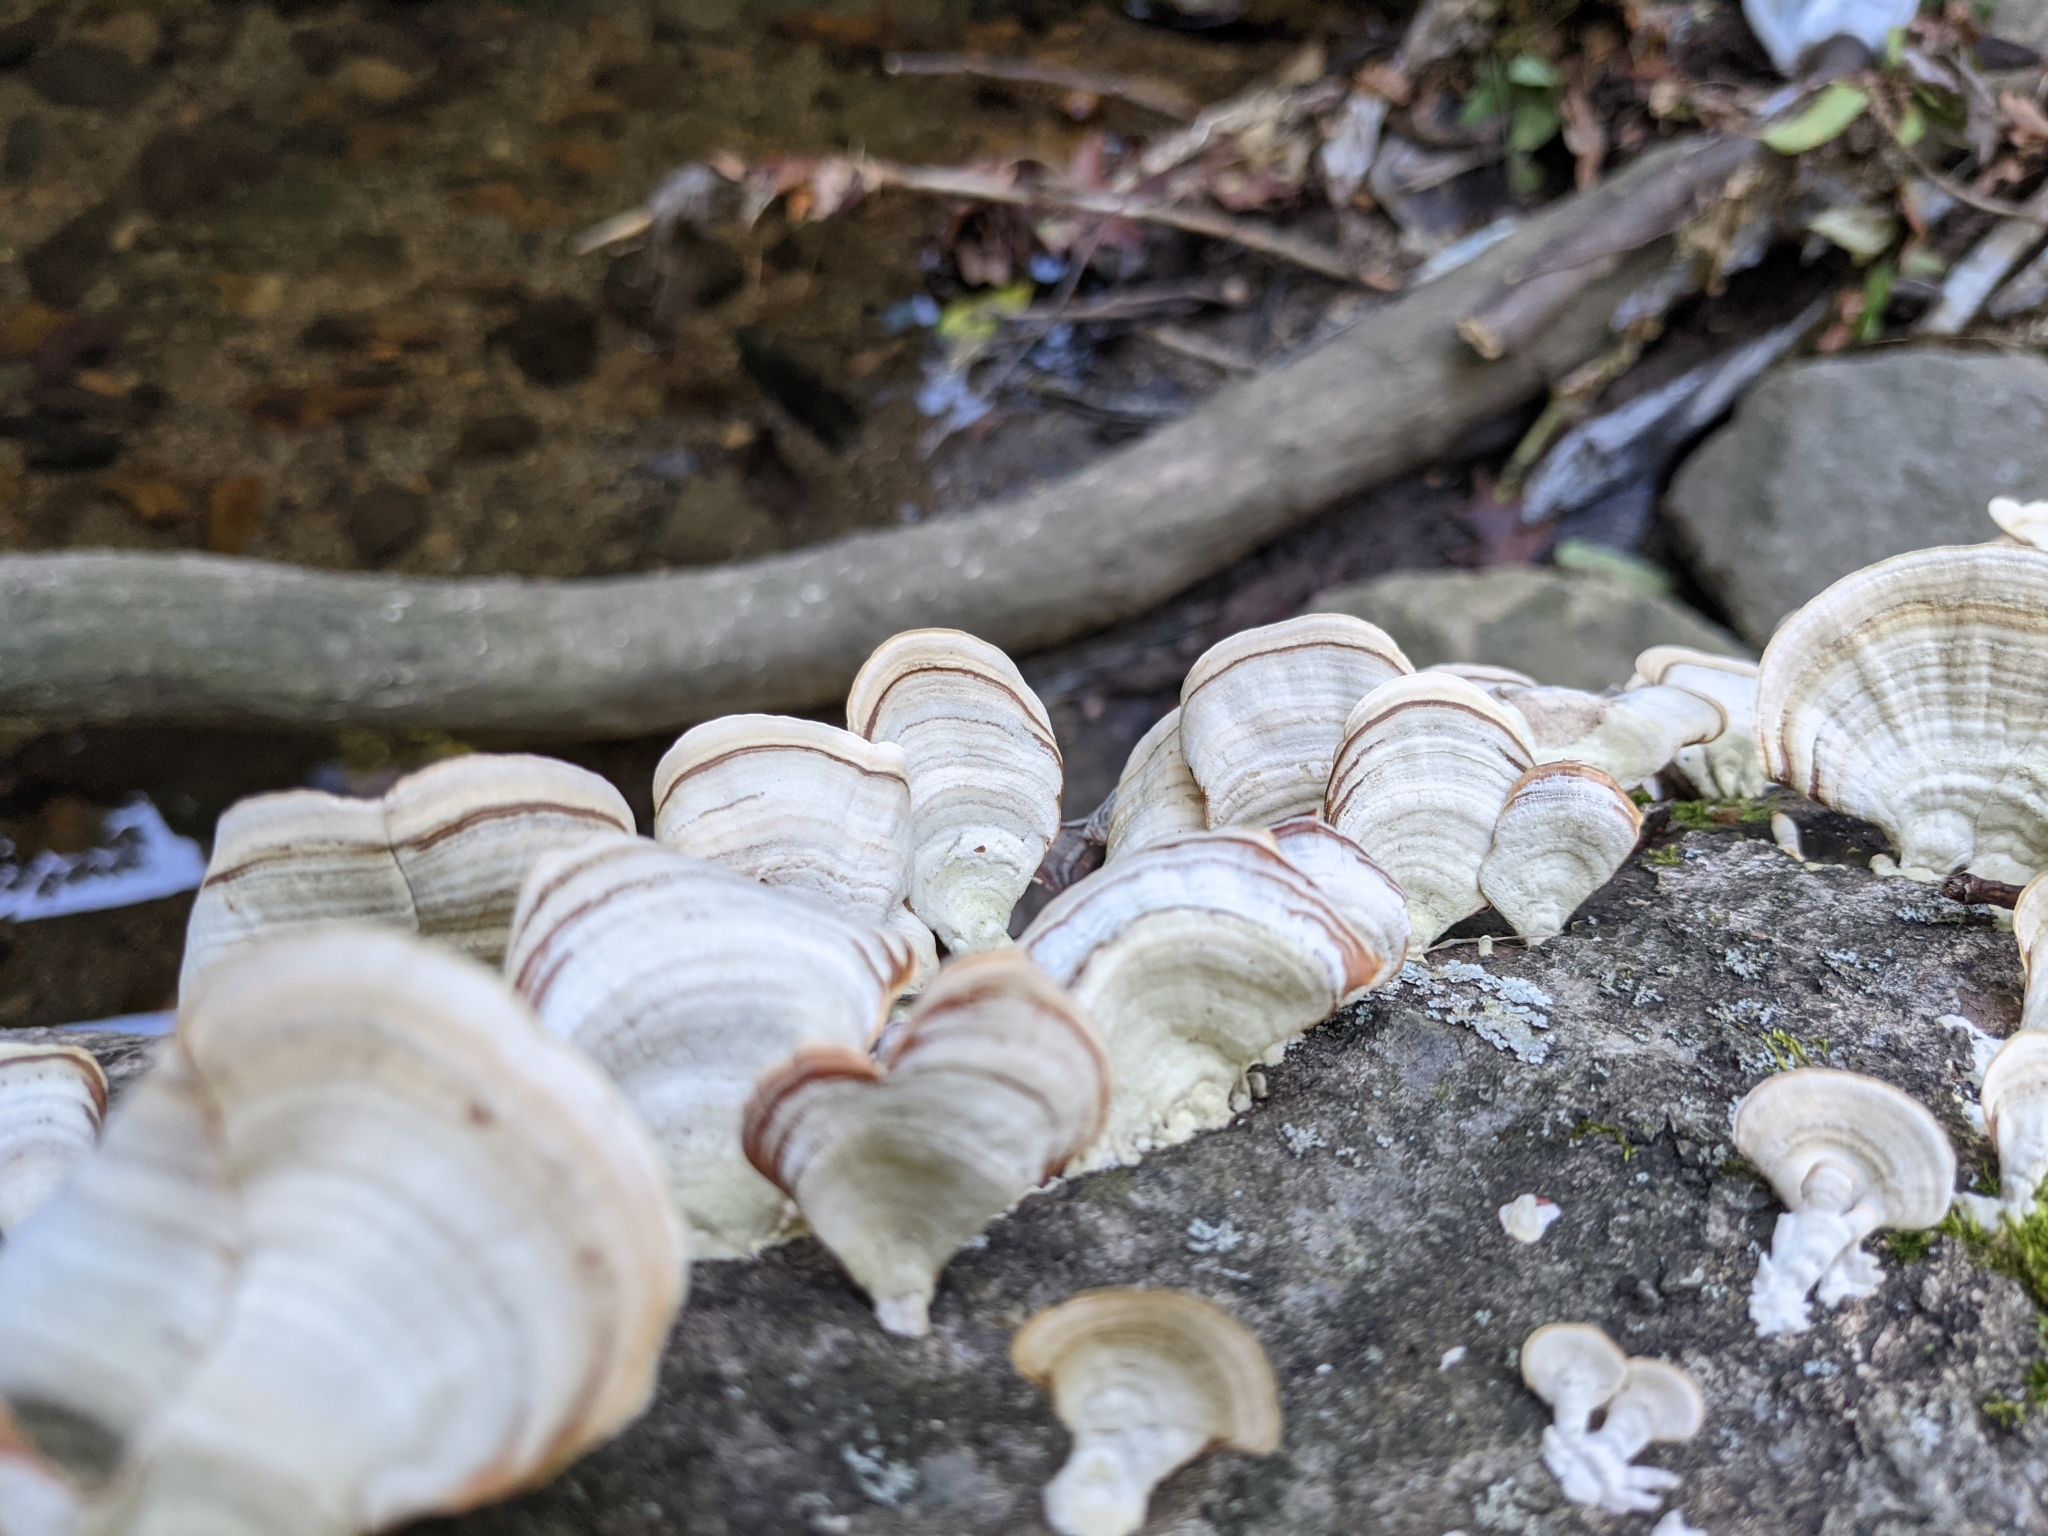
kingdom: Fungi
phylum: Basidiomycota
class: Agaricomycetes
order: Russulales
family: Stereaceae
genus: Stereum
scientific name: Stereum lobatum
